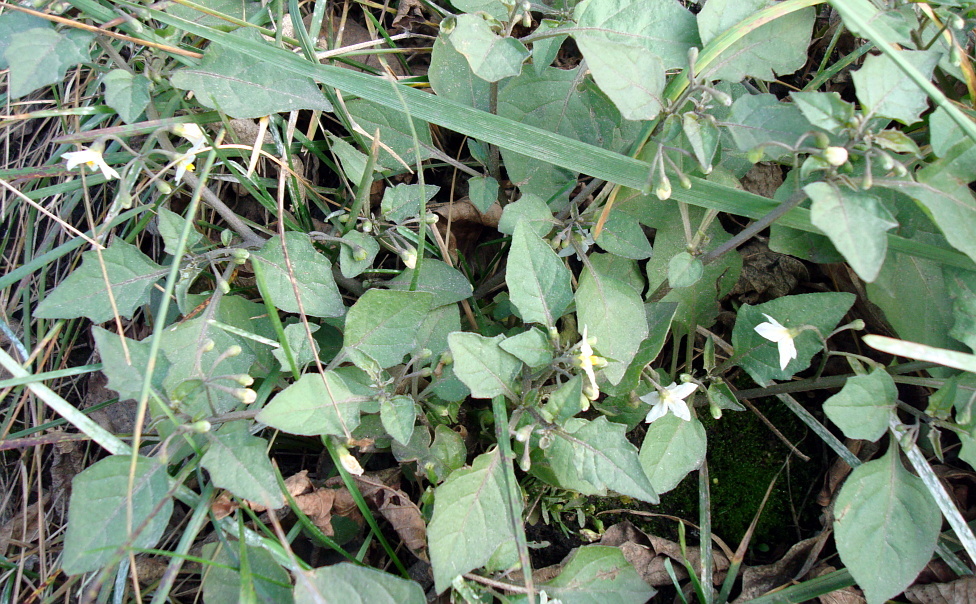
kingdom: Plantae
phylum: Tracheophyta
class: Magnoliopsida
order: Solanales
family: Solanaceae
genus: Solanum
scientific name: Solanum nigrum
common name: Black nightshade
